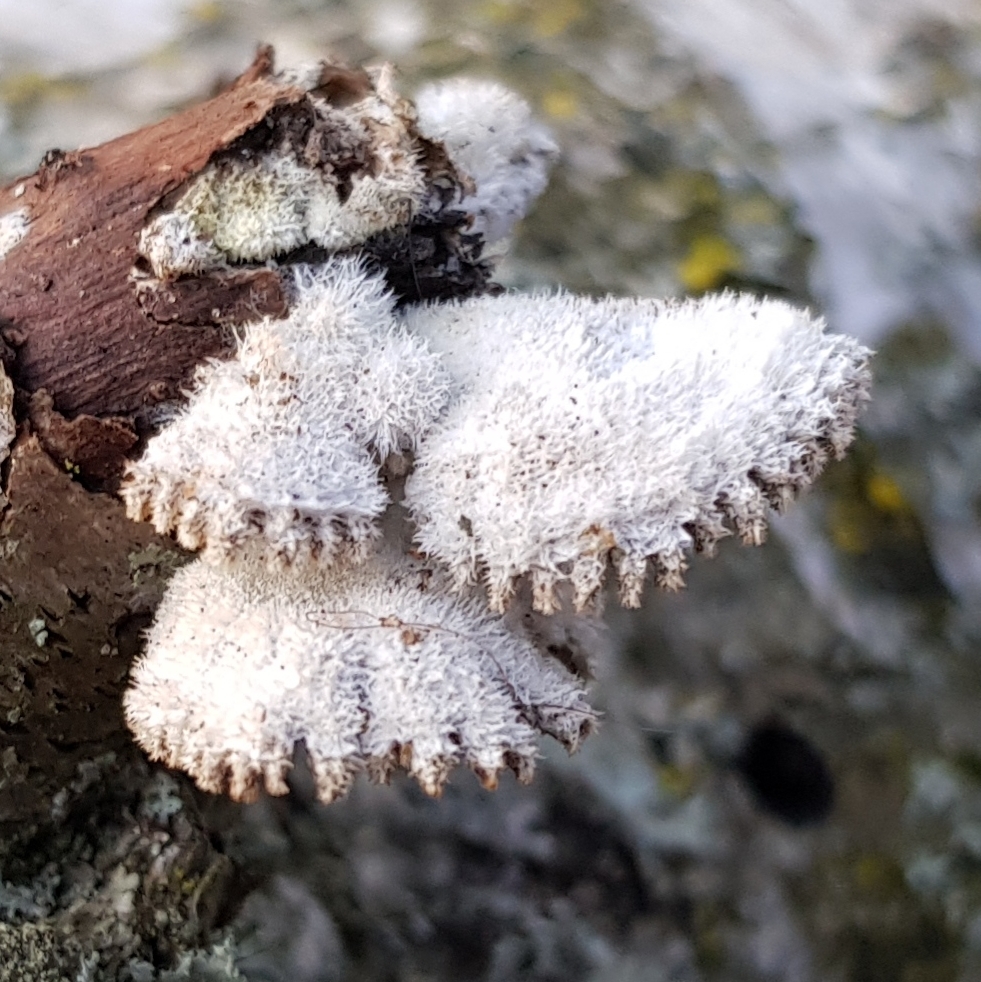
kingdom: Fungi
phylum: Basidiomycota
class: Agaricomycetes
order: Agaricales
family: Schizophyllaceae
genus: Schizophyllum
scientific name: Schizophyllum commune
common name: Common porecrust
